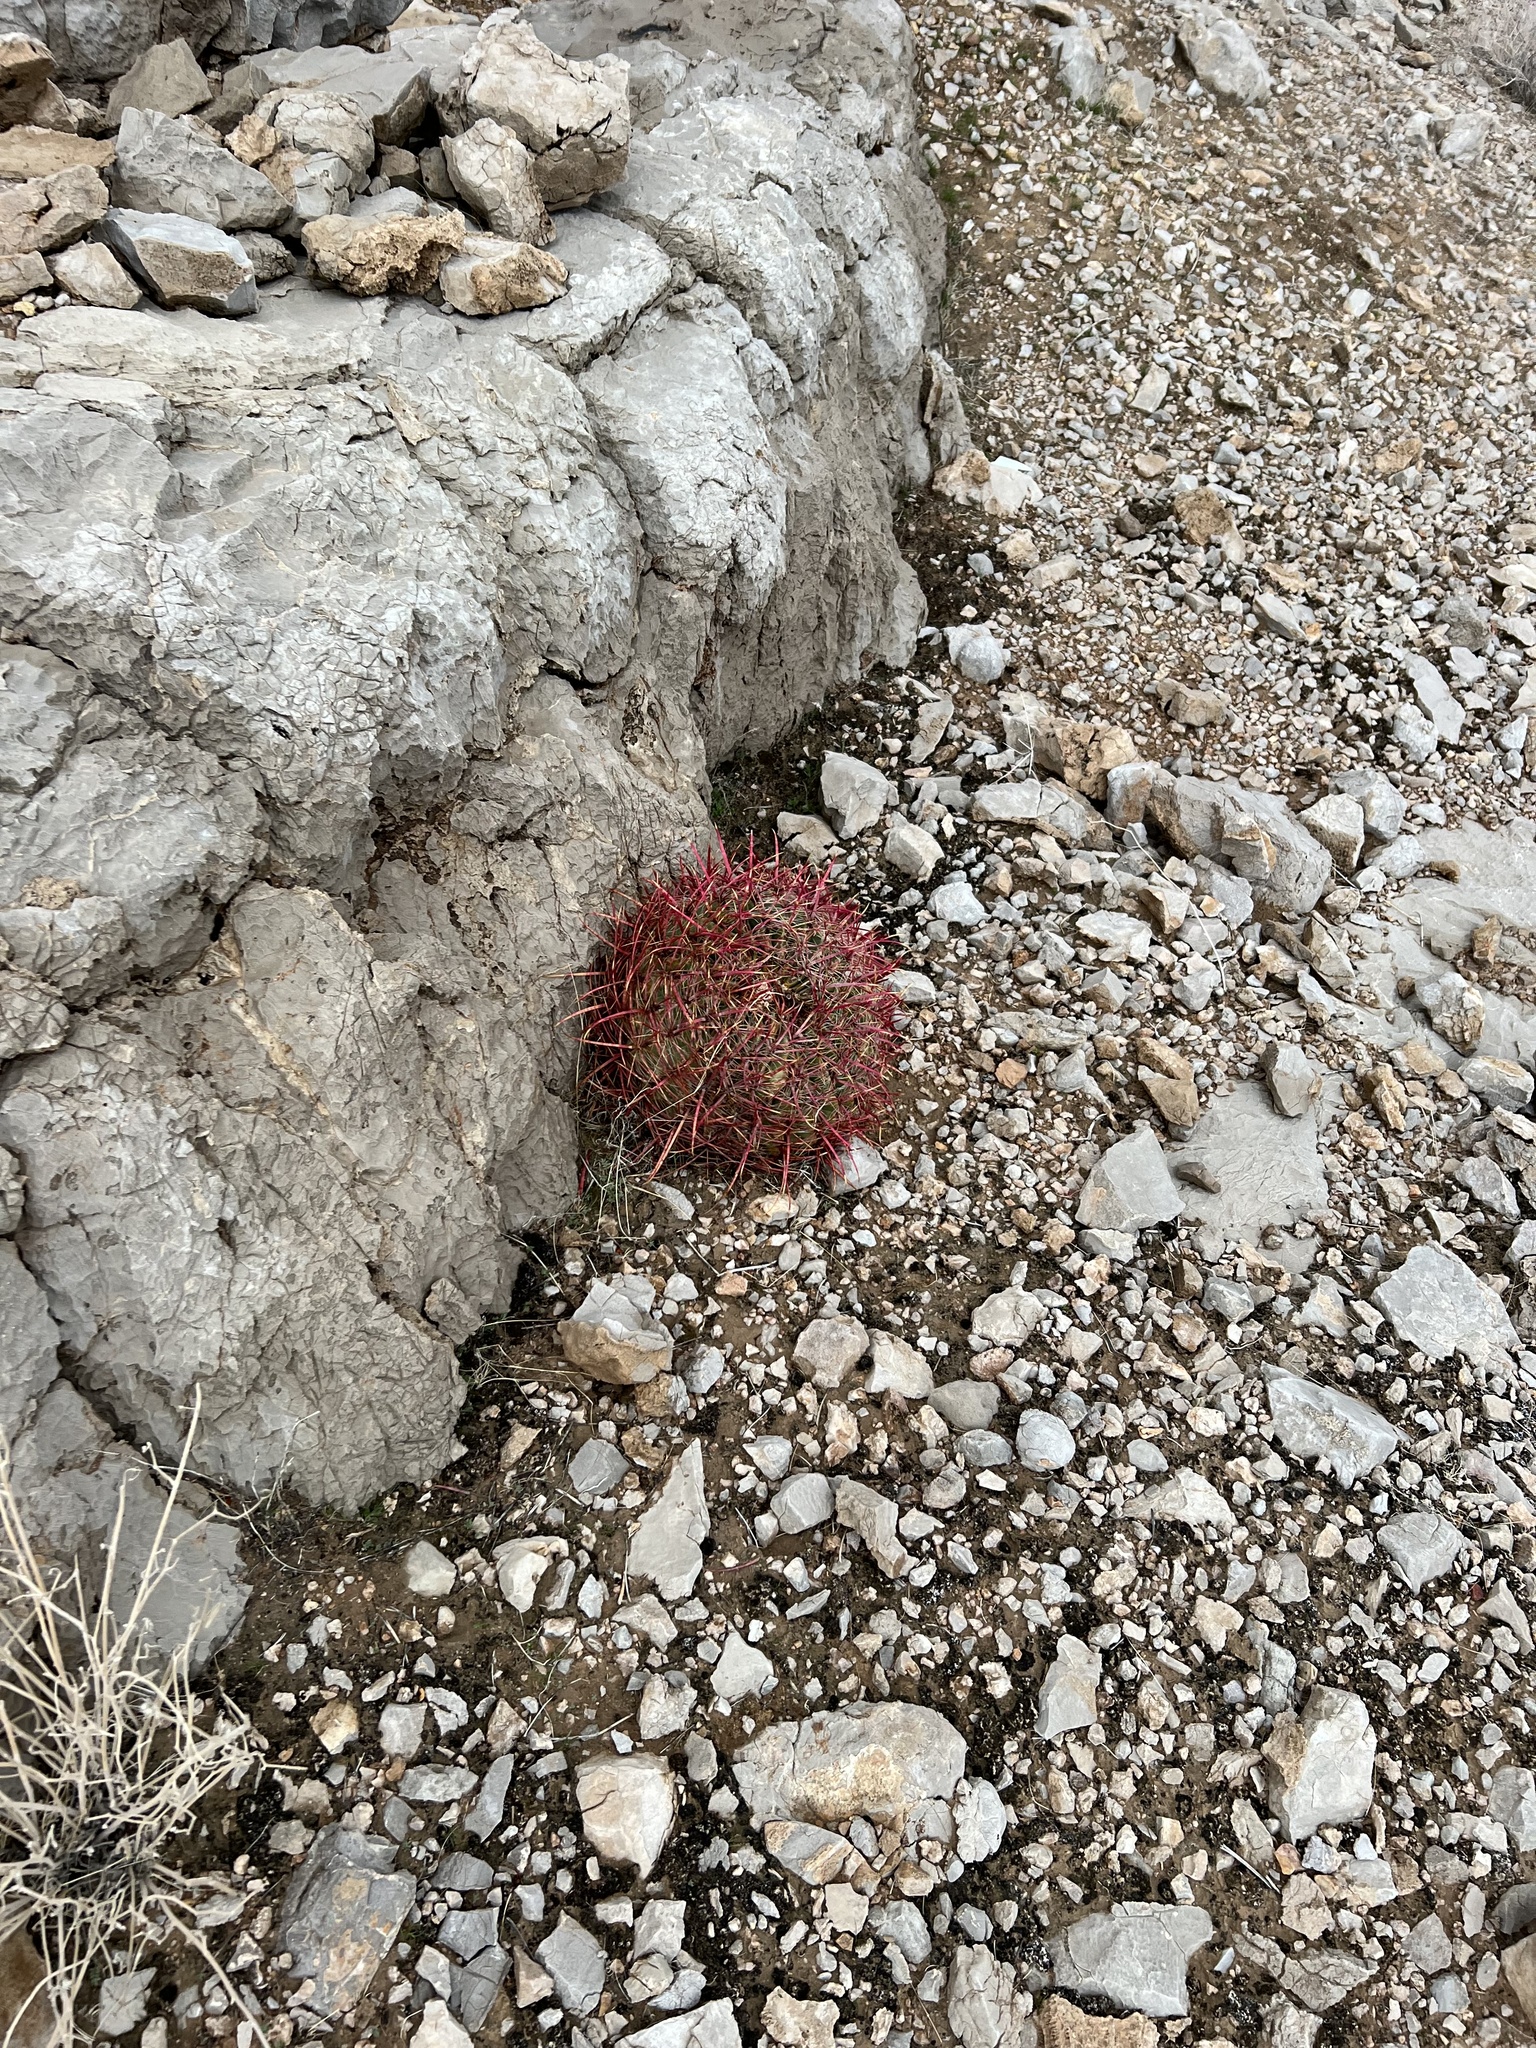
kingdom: Plantae
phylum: Tracheophyta
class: Magnoliopsida
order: Caryophyllales
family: Cactaceae
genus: Ferocactus
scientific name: Ferocactus cylindraceus
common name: California barrel cactus
